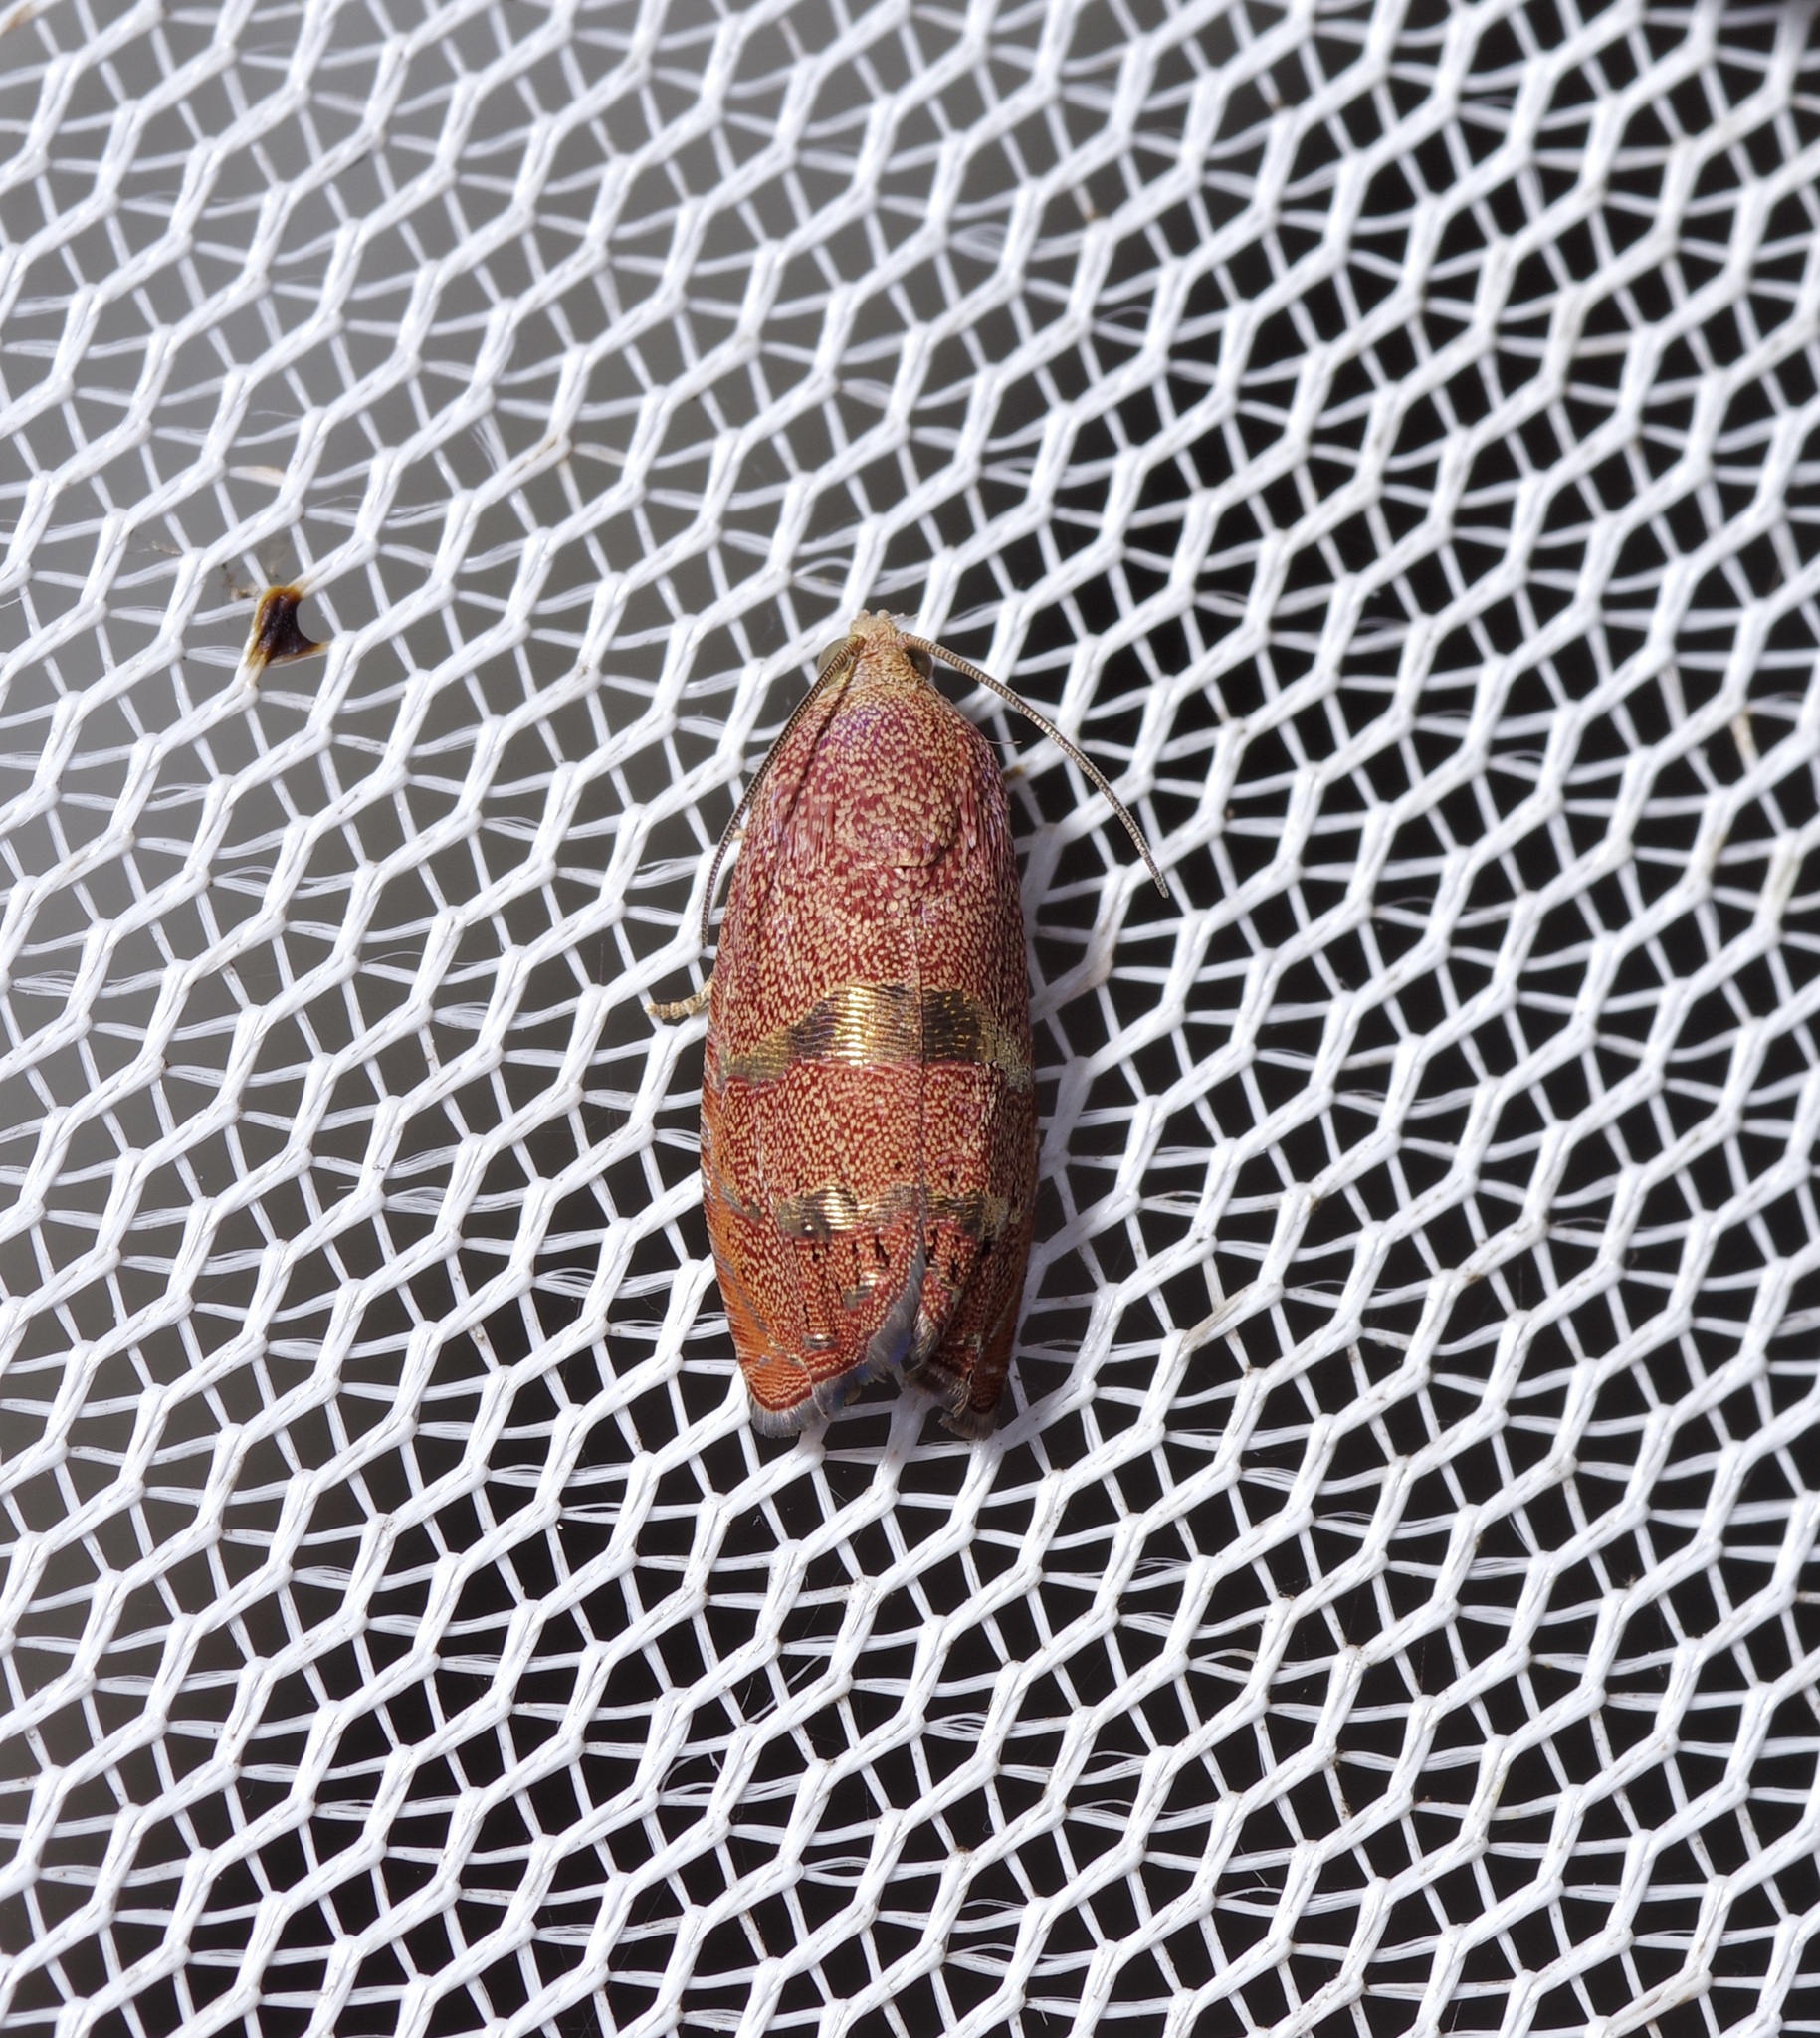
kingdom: Animalia
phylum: Arthropoda
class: Insecta
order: Lepidoptera
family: Tortricidae
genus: Cydia
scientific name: Cydia latiferreana
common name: Filbertworm moth
